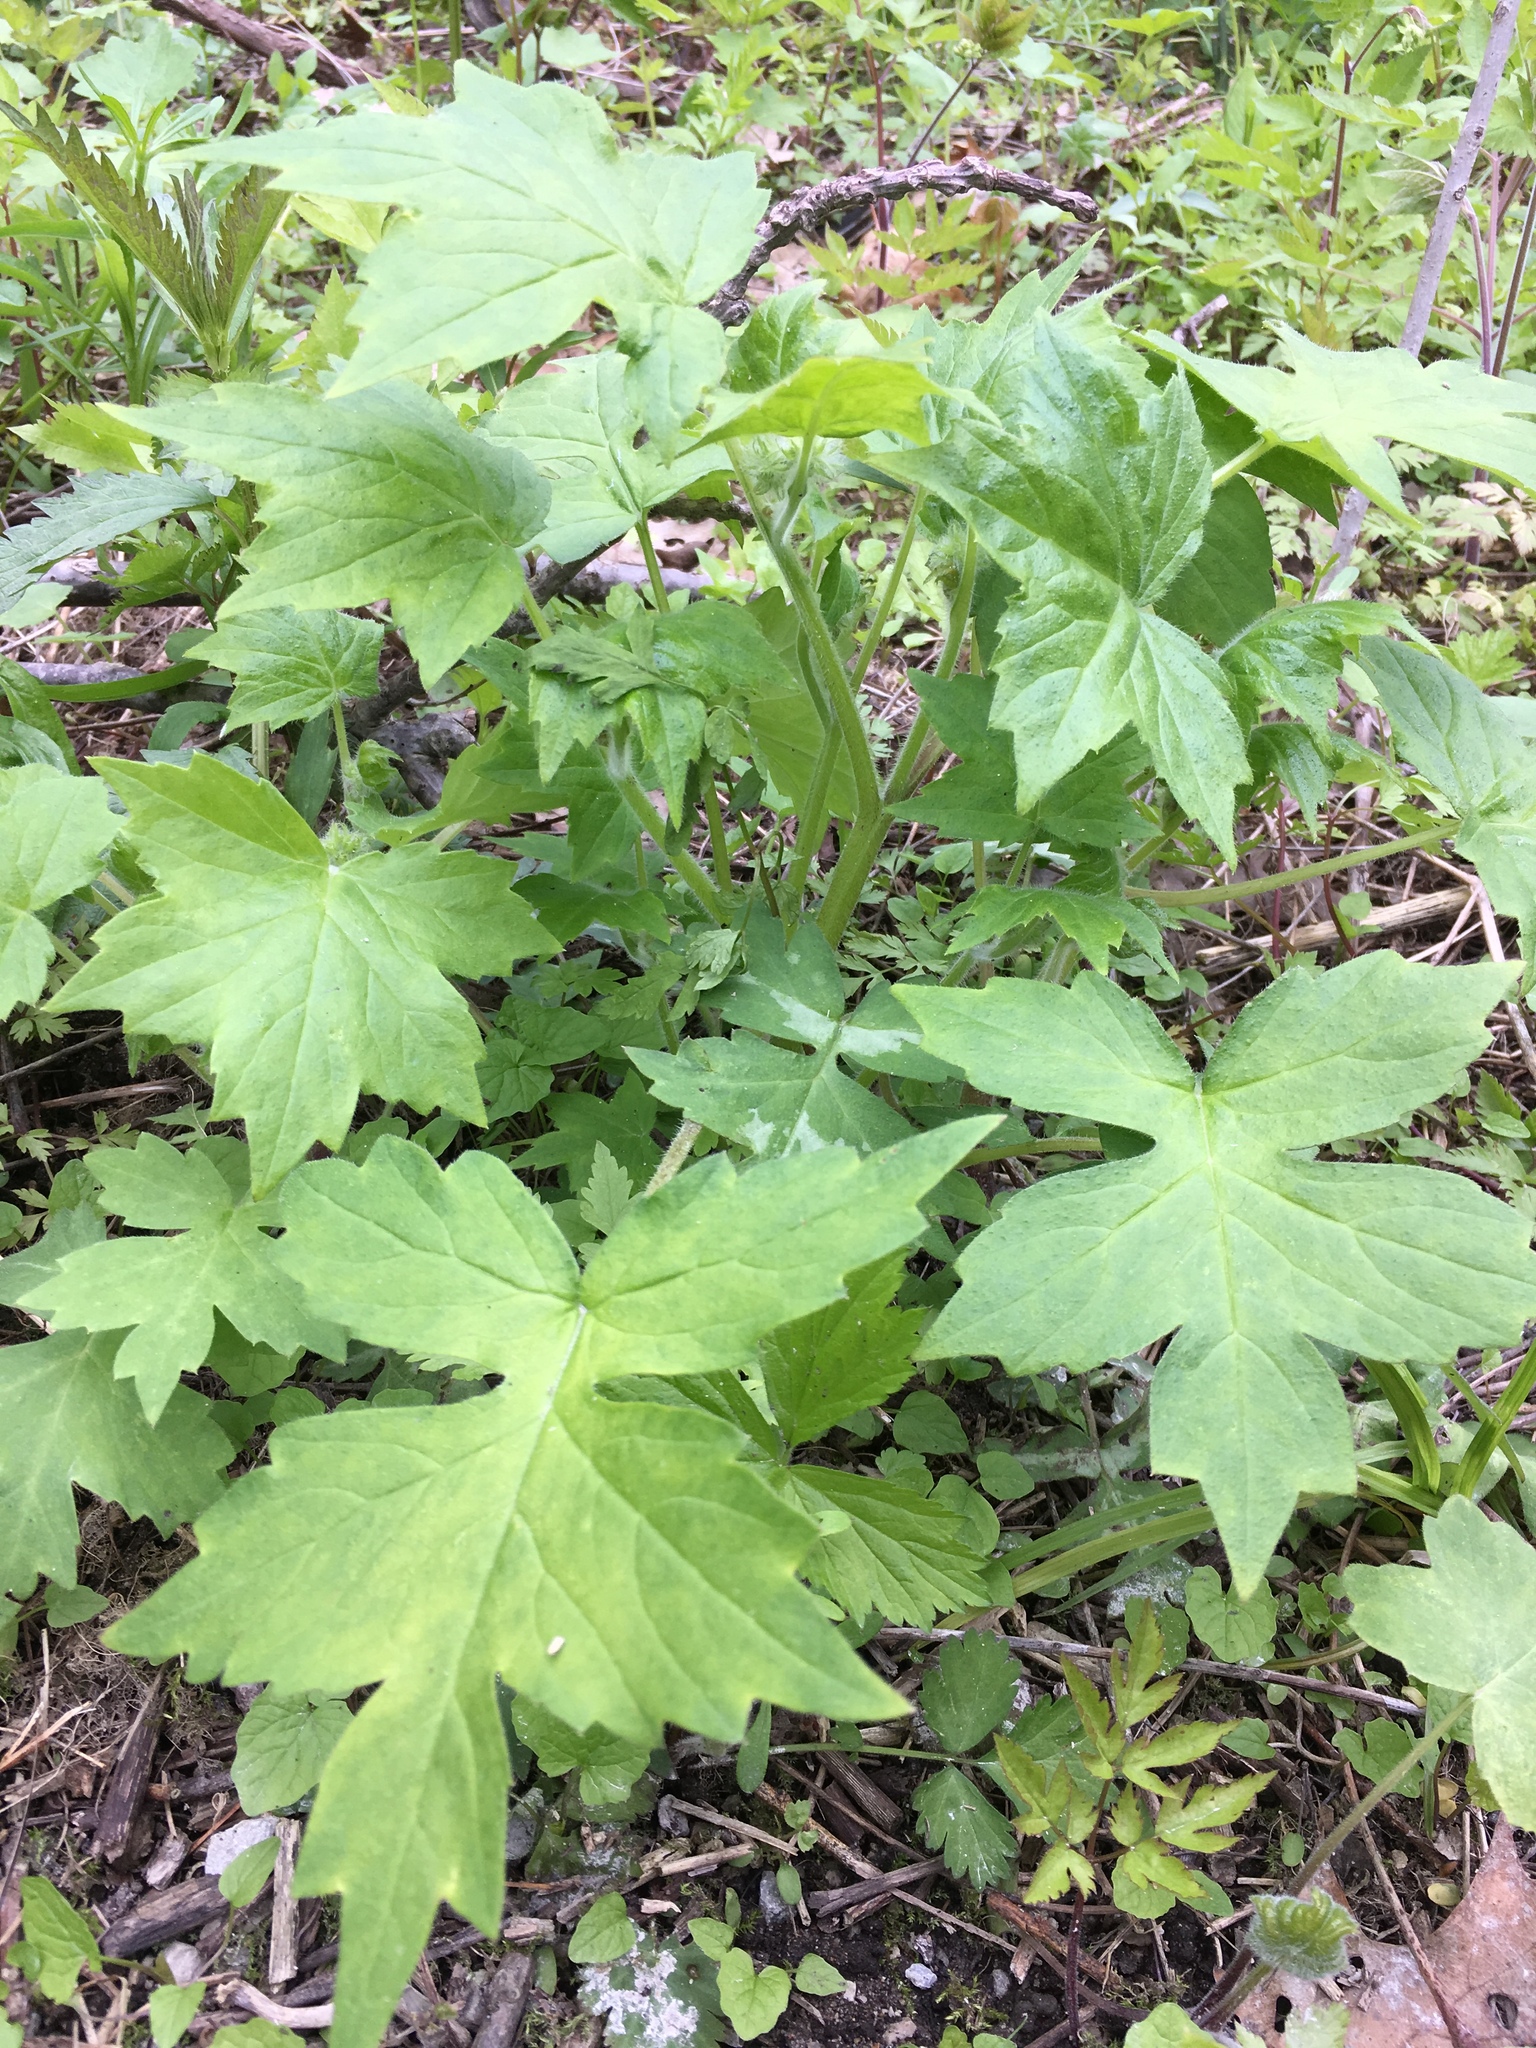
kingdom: Plantae
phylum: Tracheophyta
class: Magnoliopsida
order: Boraginales
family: Hydrophyllaceae
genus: Hydrophyllum
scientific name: Hydrophyllum appendiculatum
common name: Appendaged waterleaf
